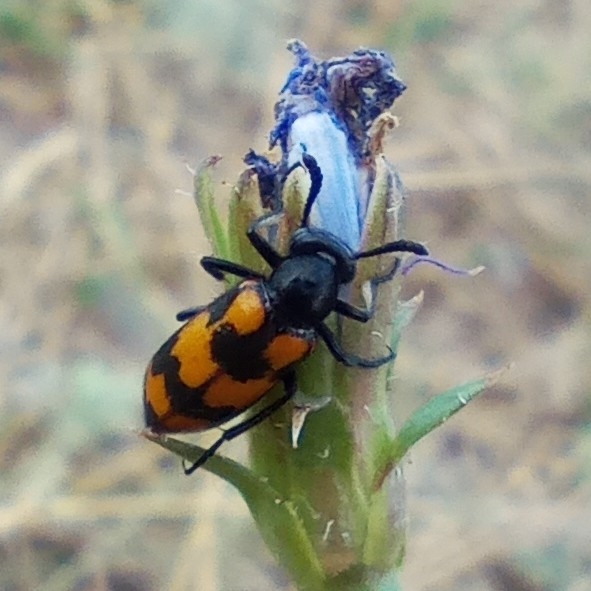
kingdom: Animalia
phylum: Arthropoda
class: Insecta
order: Coleoptera
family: Meloidae
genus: Mylabris
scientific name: Mylabris variabilis
